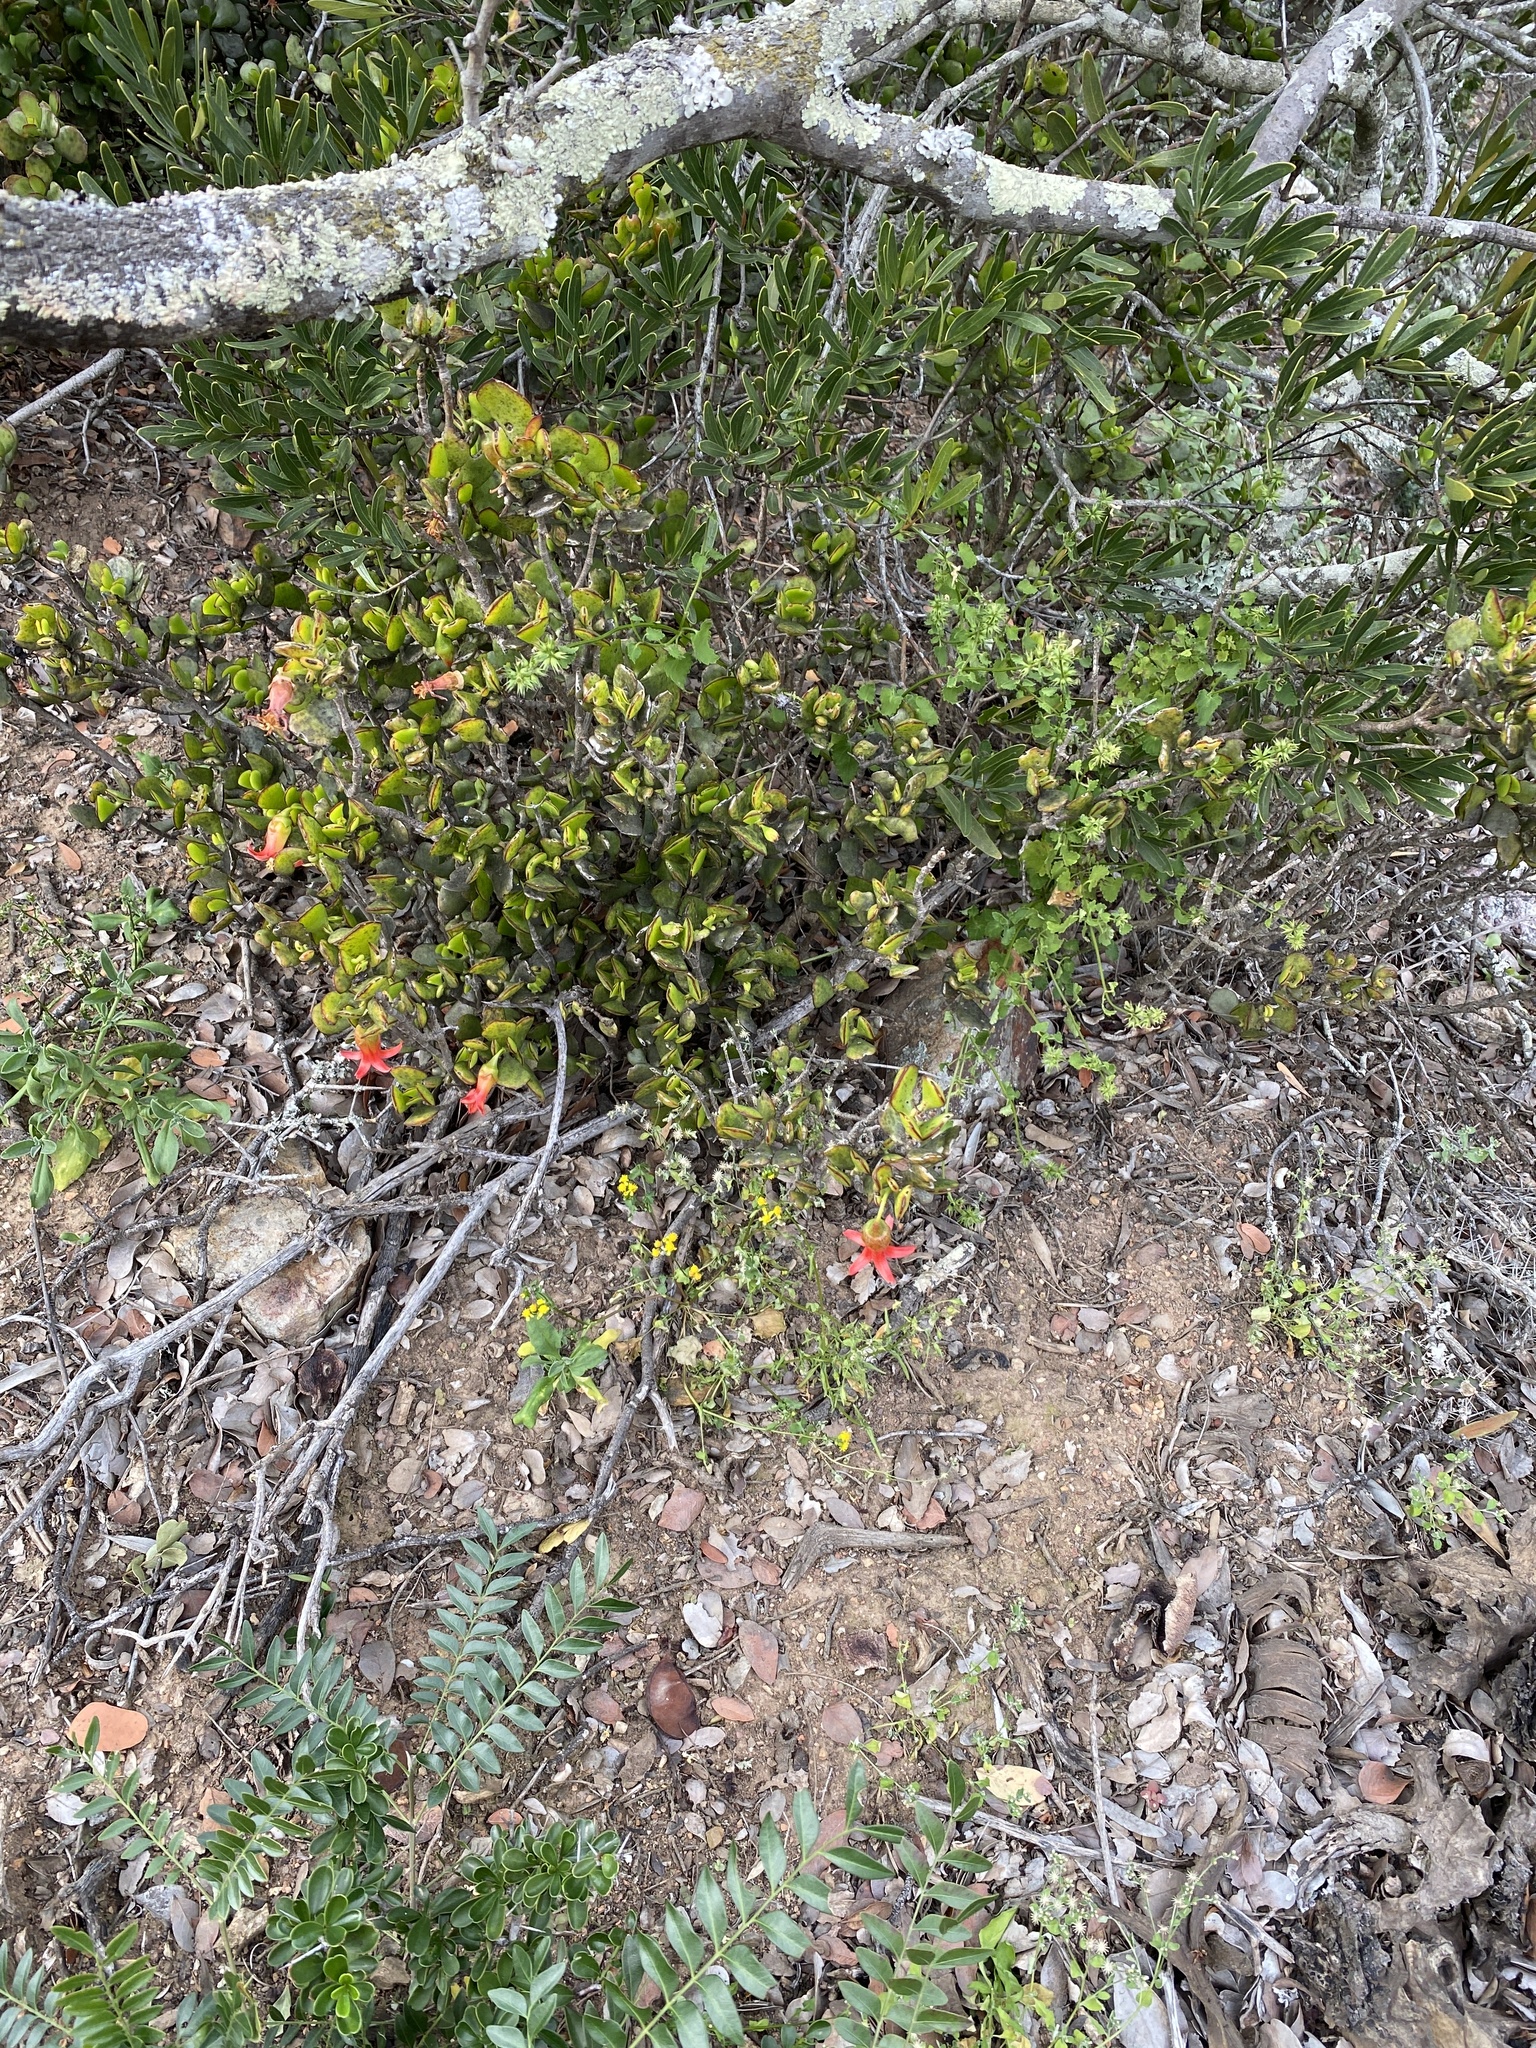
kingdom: Plantae
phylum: Tracheophyta
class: Magnoliopsida
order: Saxifragales
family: Crassulaceae
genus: Cotyledon
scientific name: Cotyledon woodii
